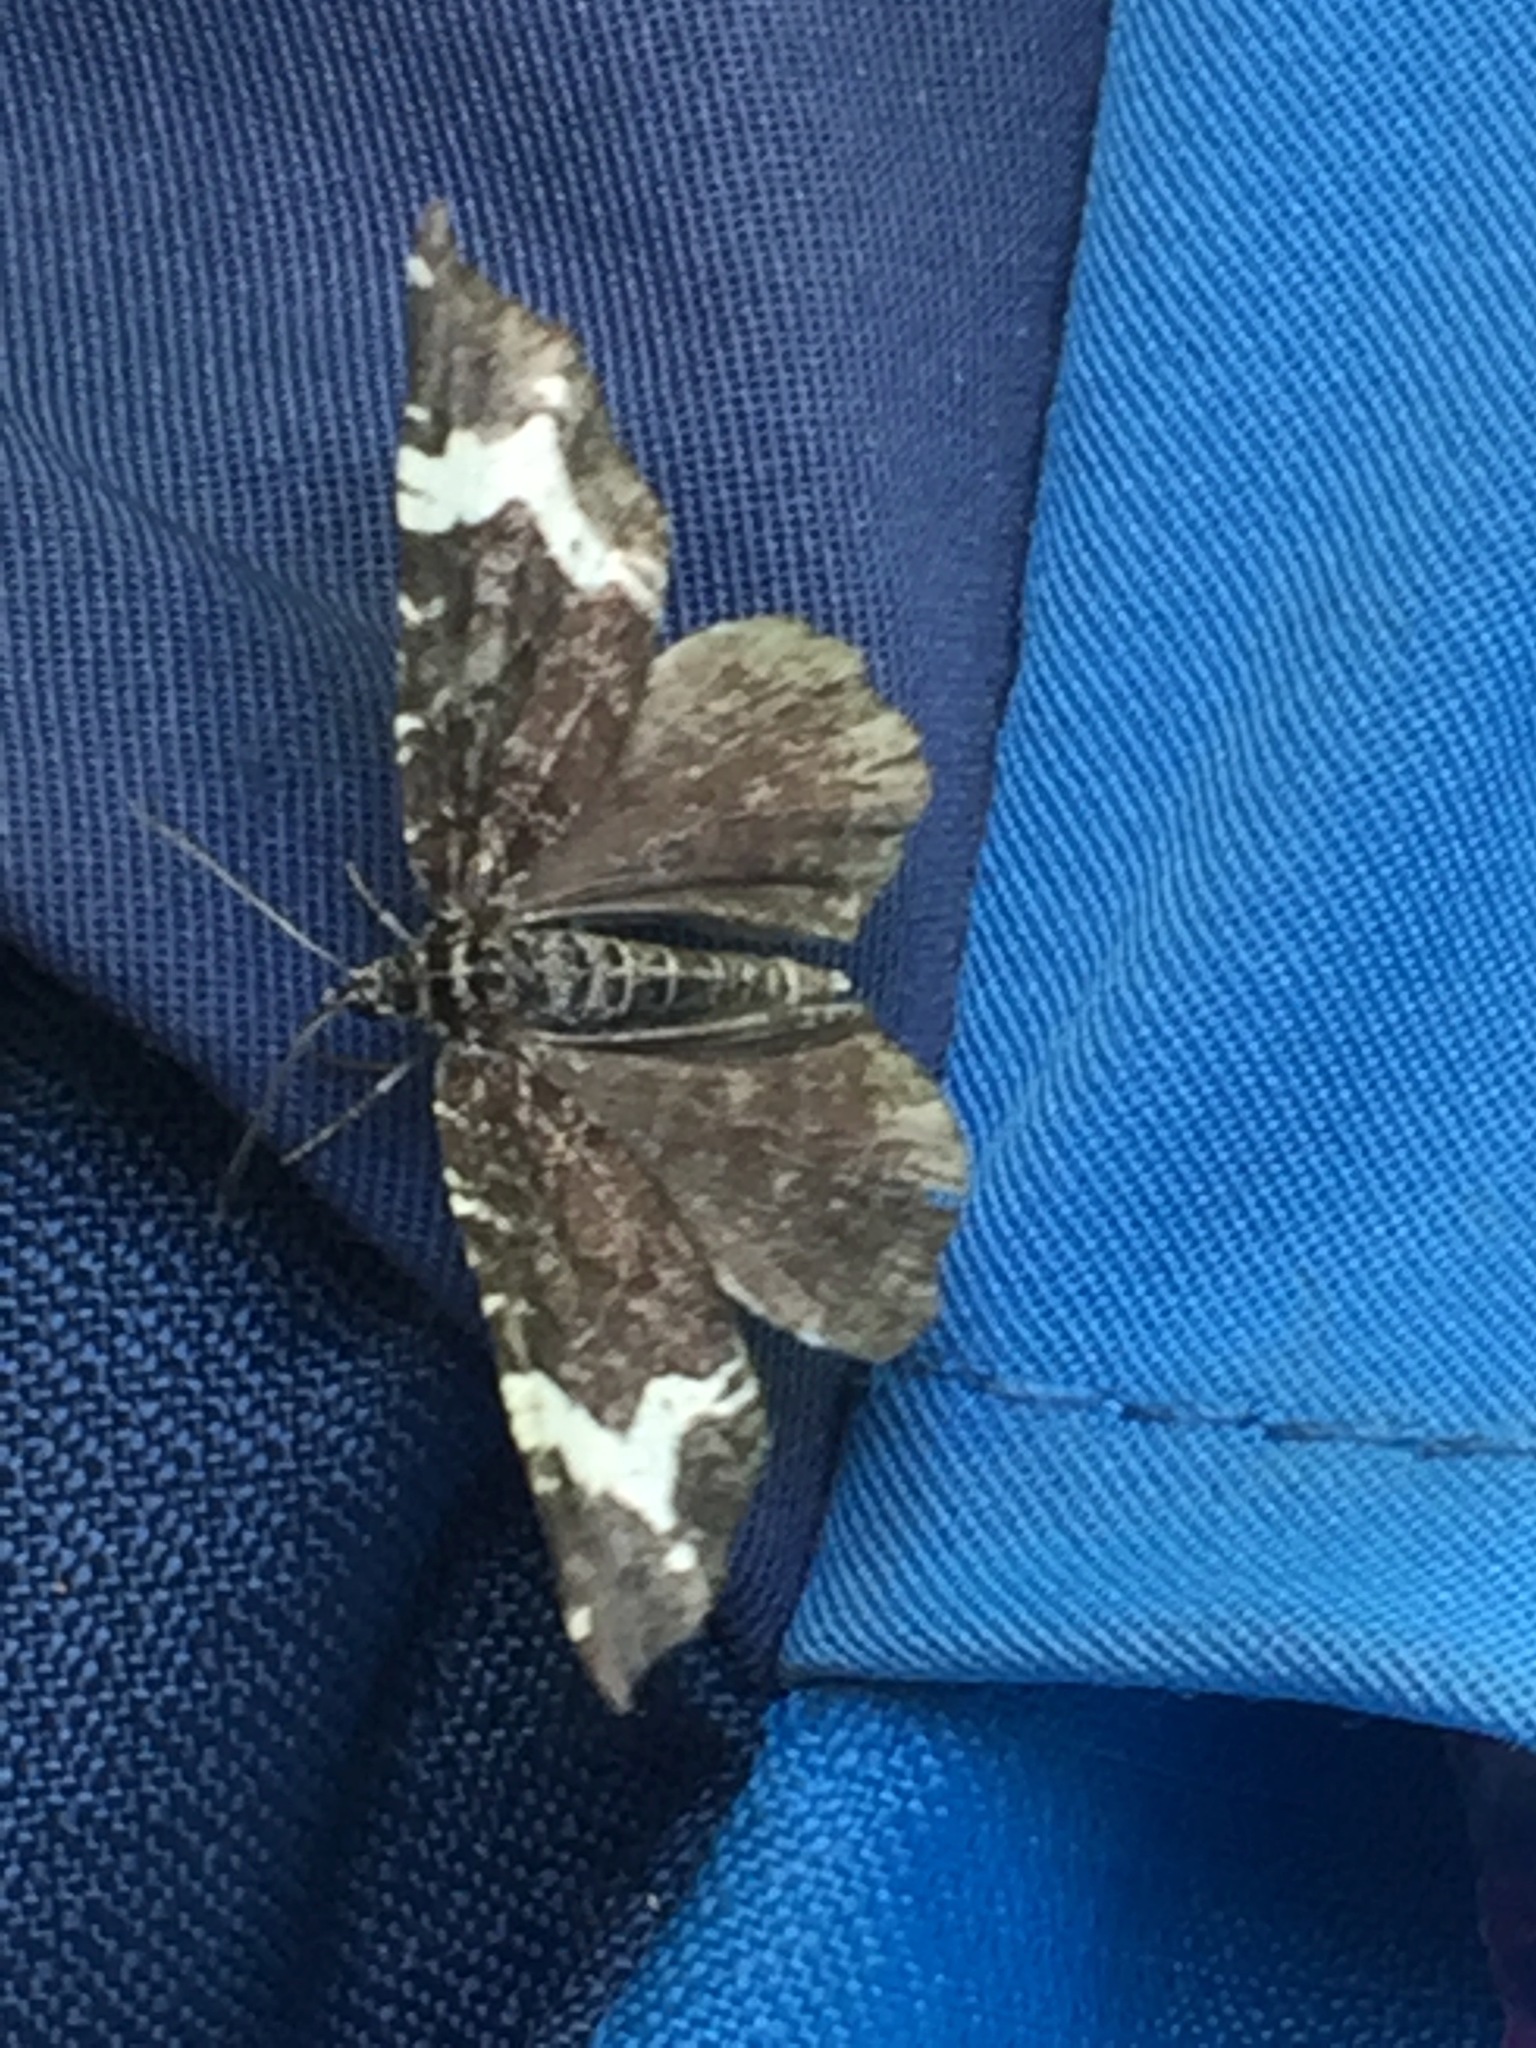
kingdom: Animalia
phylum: Arthropoda
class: Insecta
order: Lepidoptera
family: Geometridae
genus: Rheumaptera
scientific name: Rheumaptera
